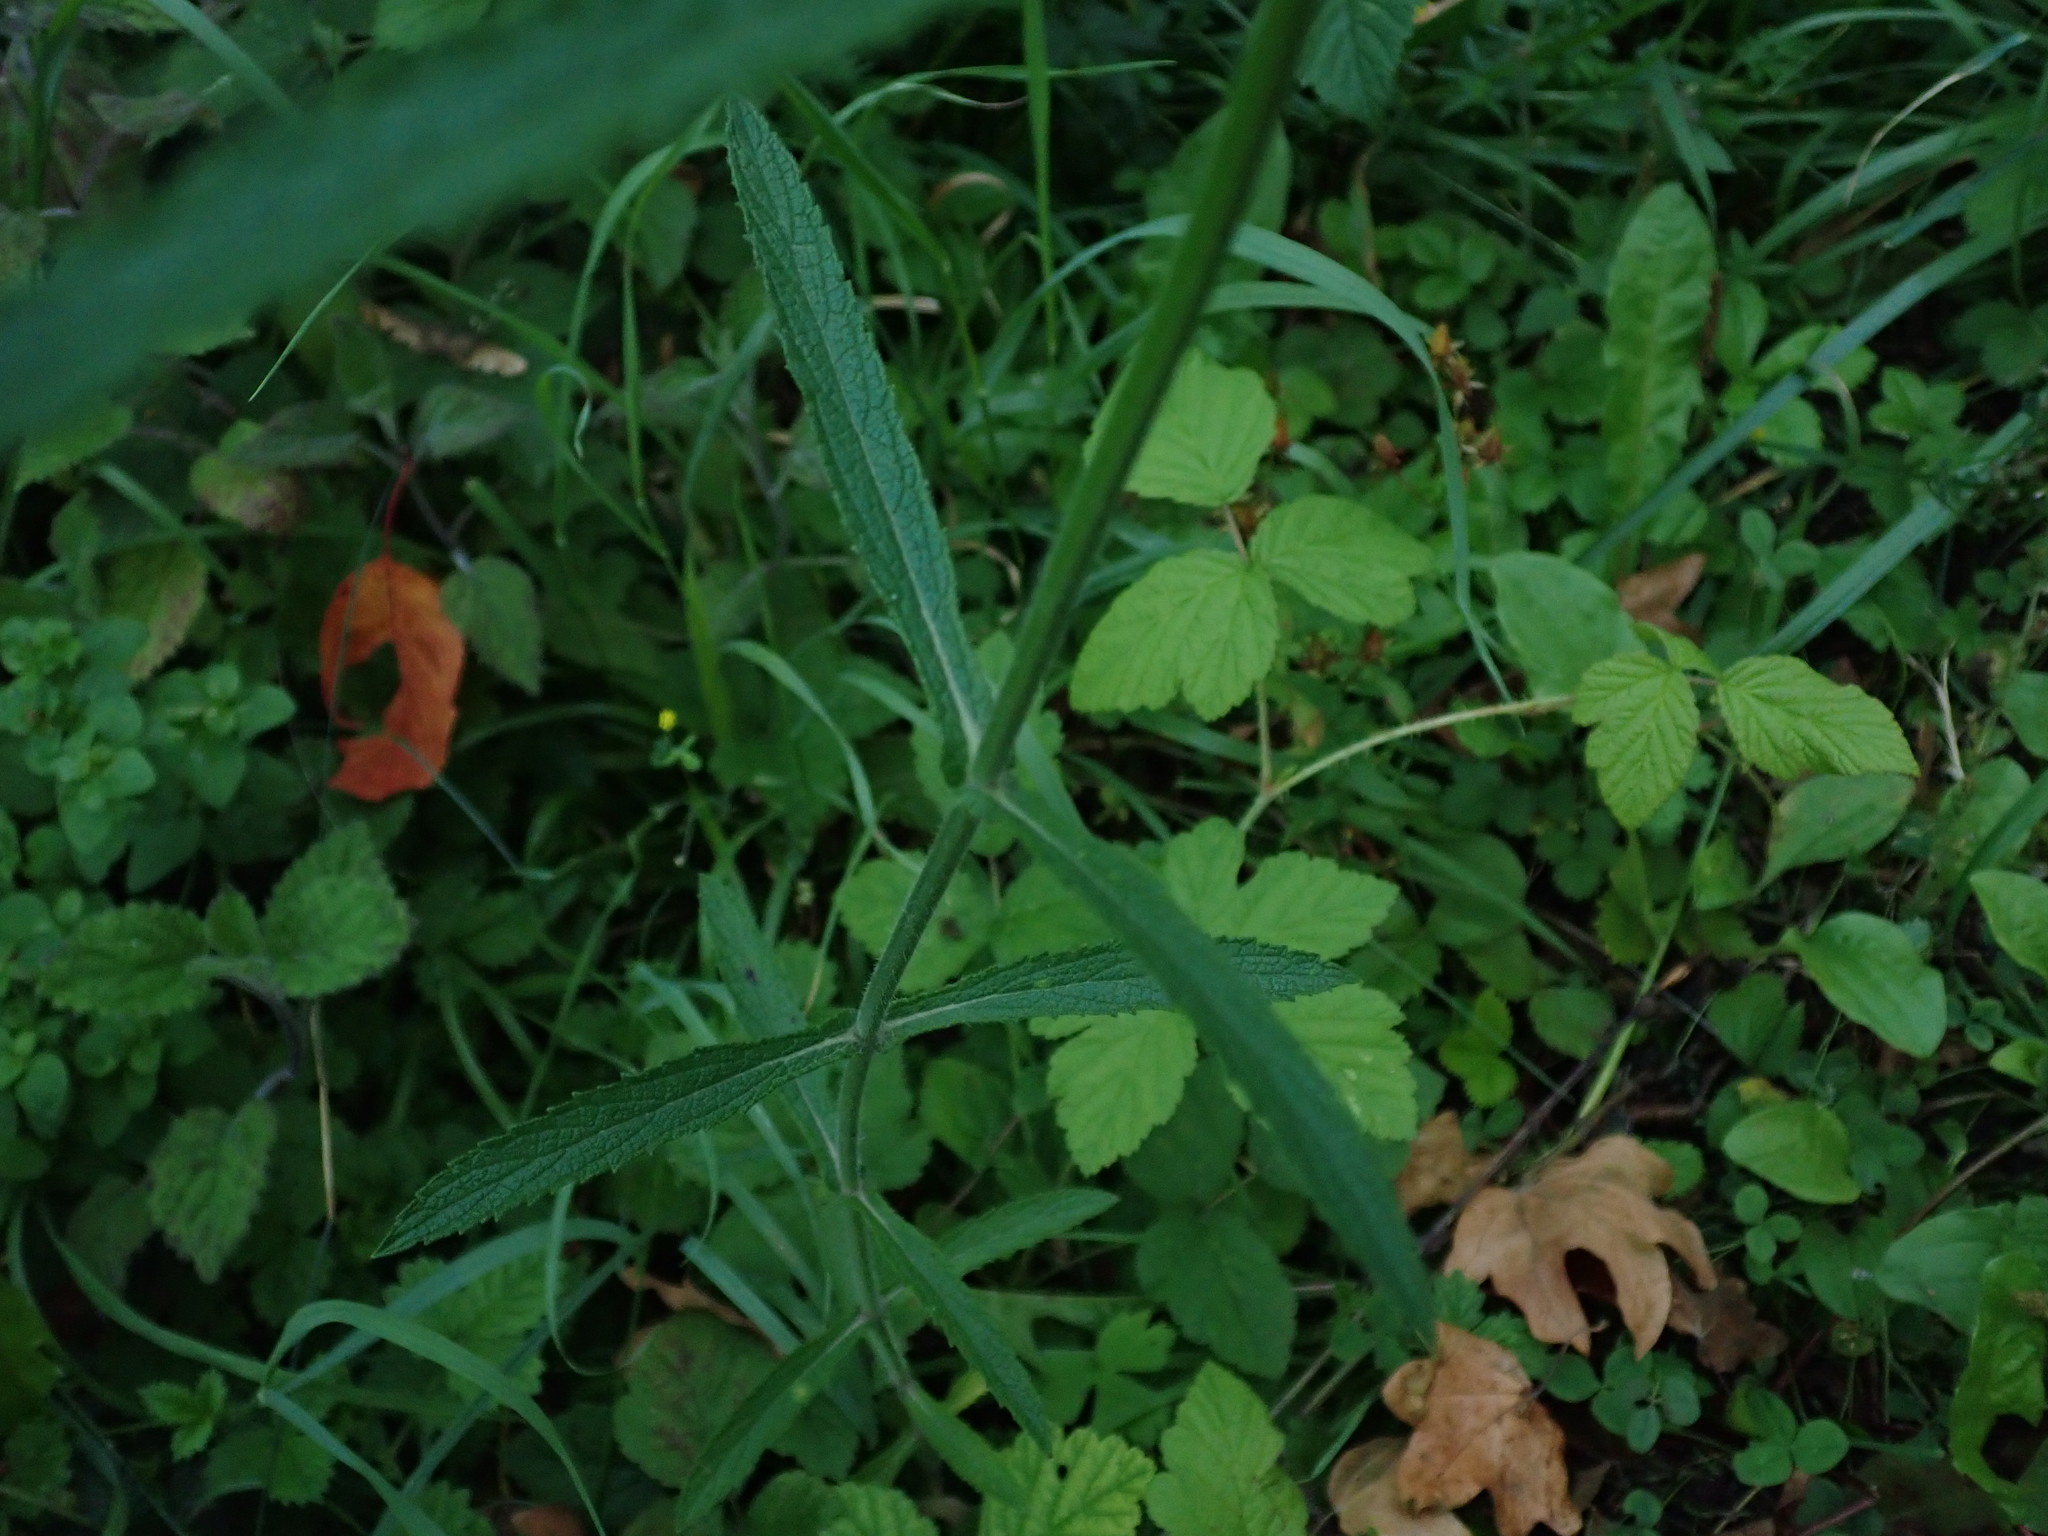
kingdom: Plantae
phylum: Tracheophyta
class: Magnoliopsida
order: Lamiales
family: Verbenaceae
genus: Verbena
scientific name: Verbena bonariensis
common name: Purpletop vervain
